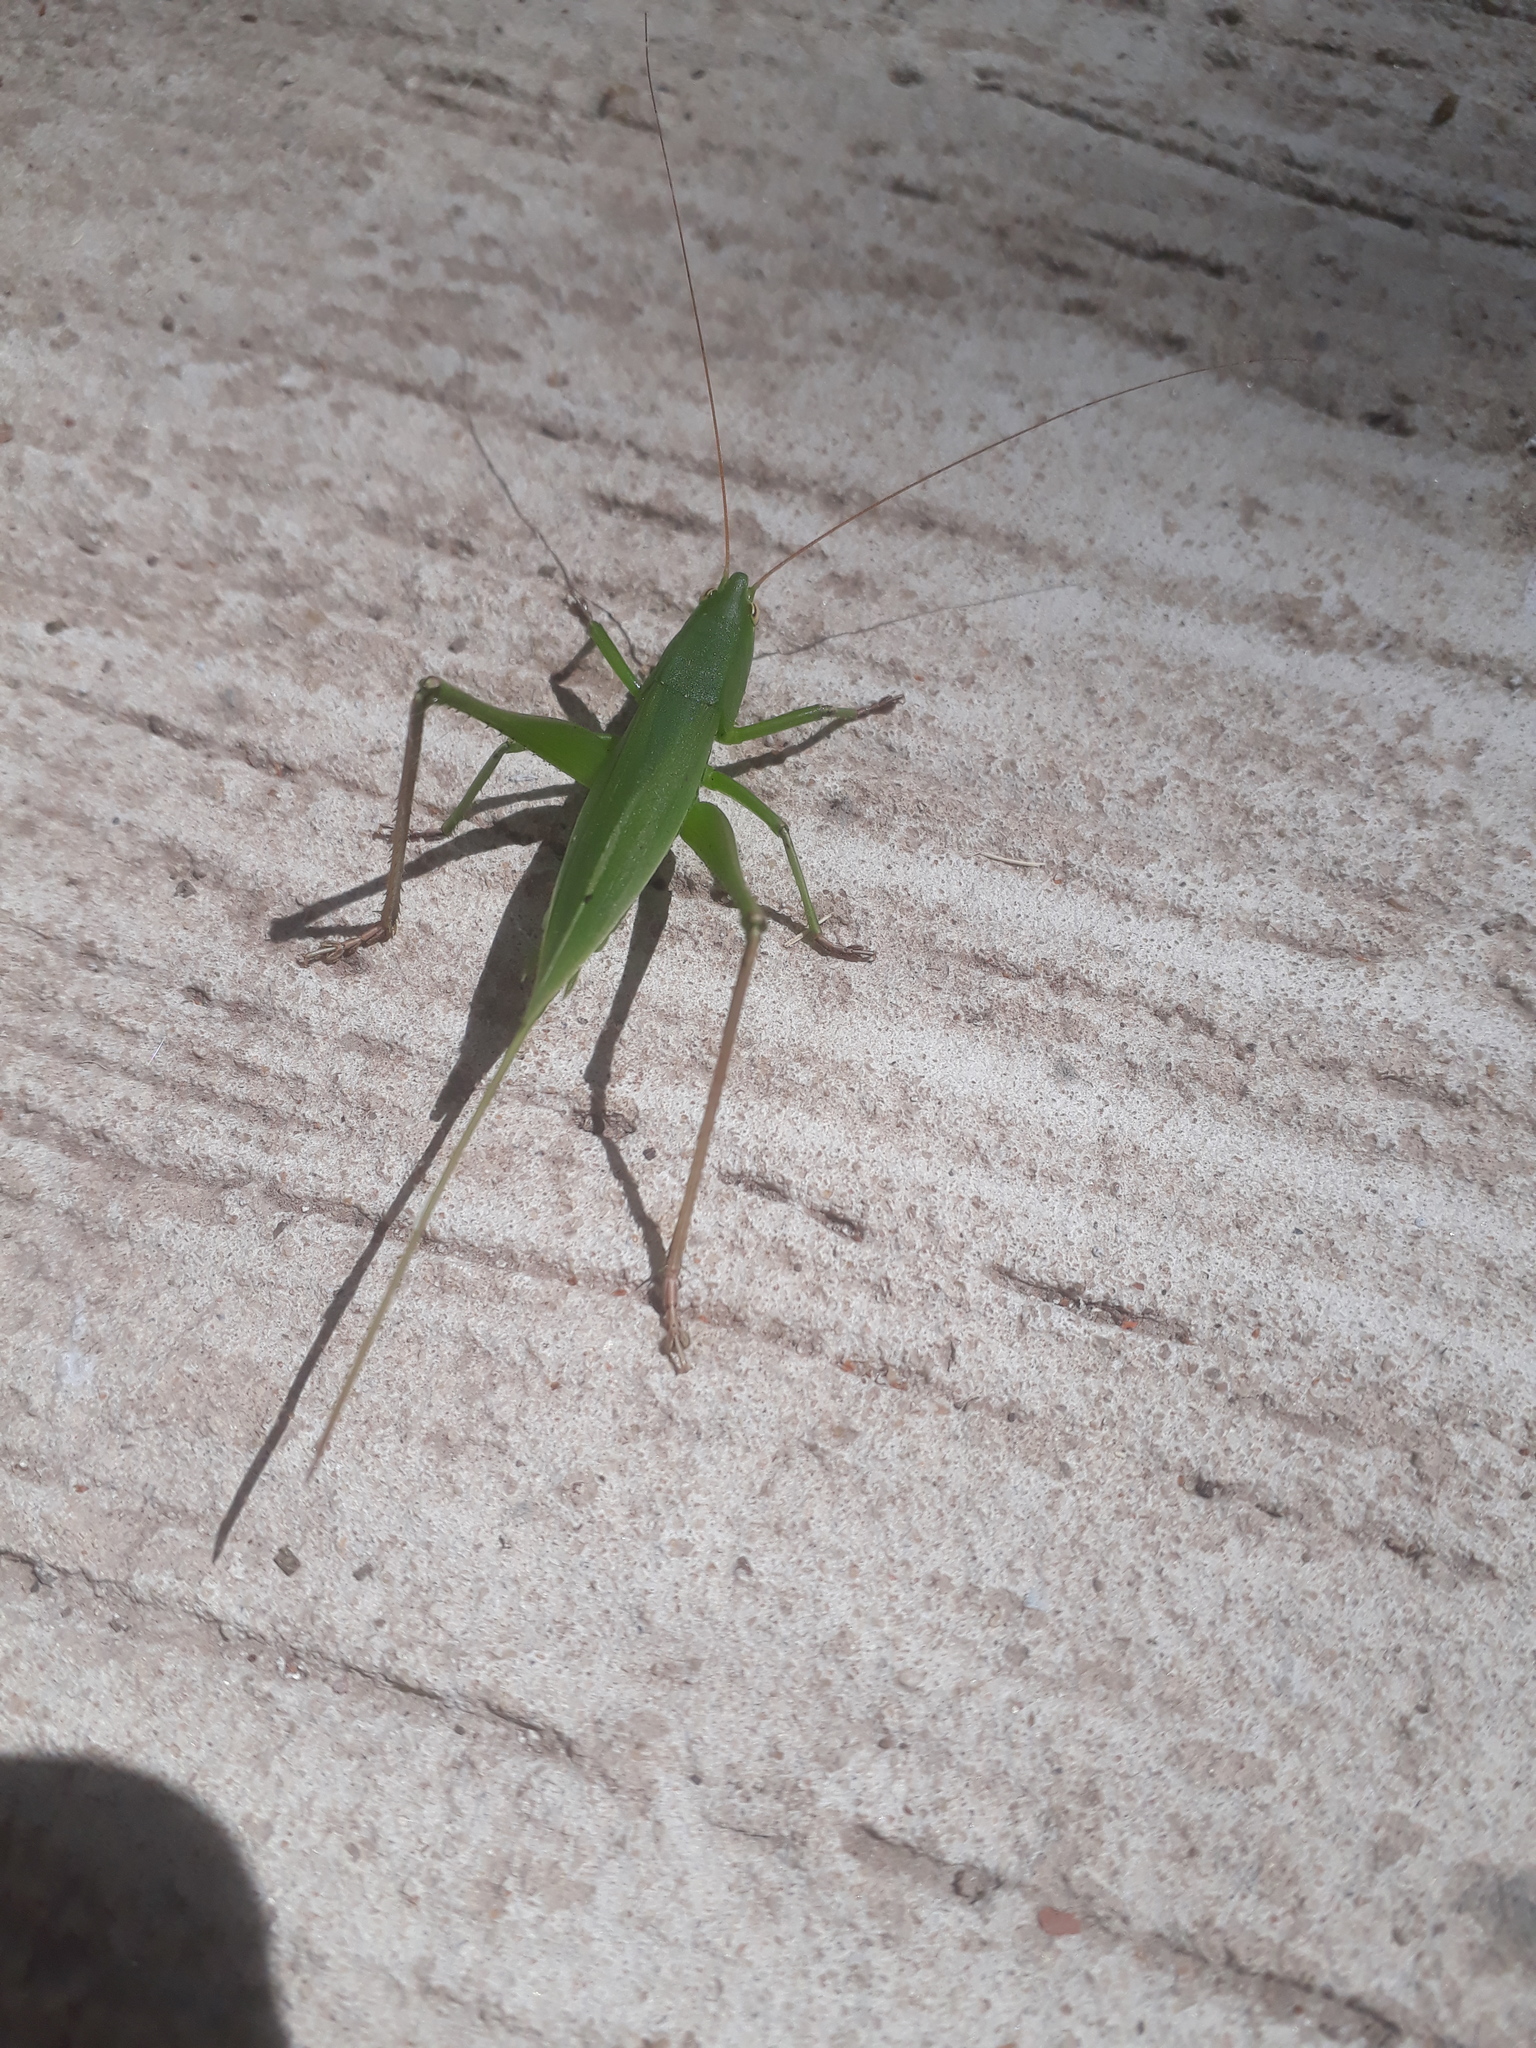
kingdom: Animalia
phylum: Arthropoda
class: Insecta
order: Orthoptera
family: Tettigoniidae
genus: Neoconocephalus
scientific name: Neoconocephalus brevis
